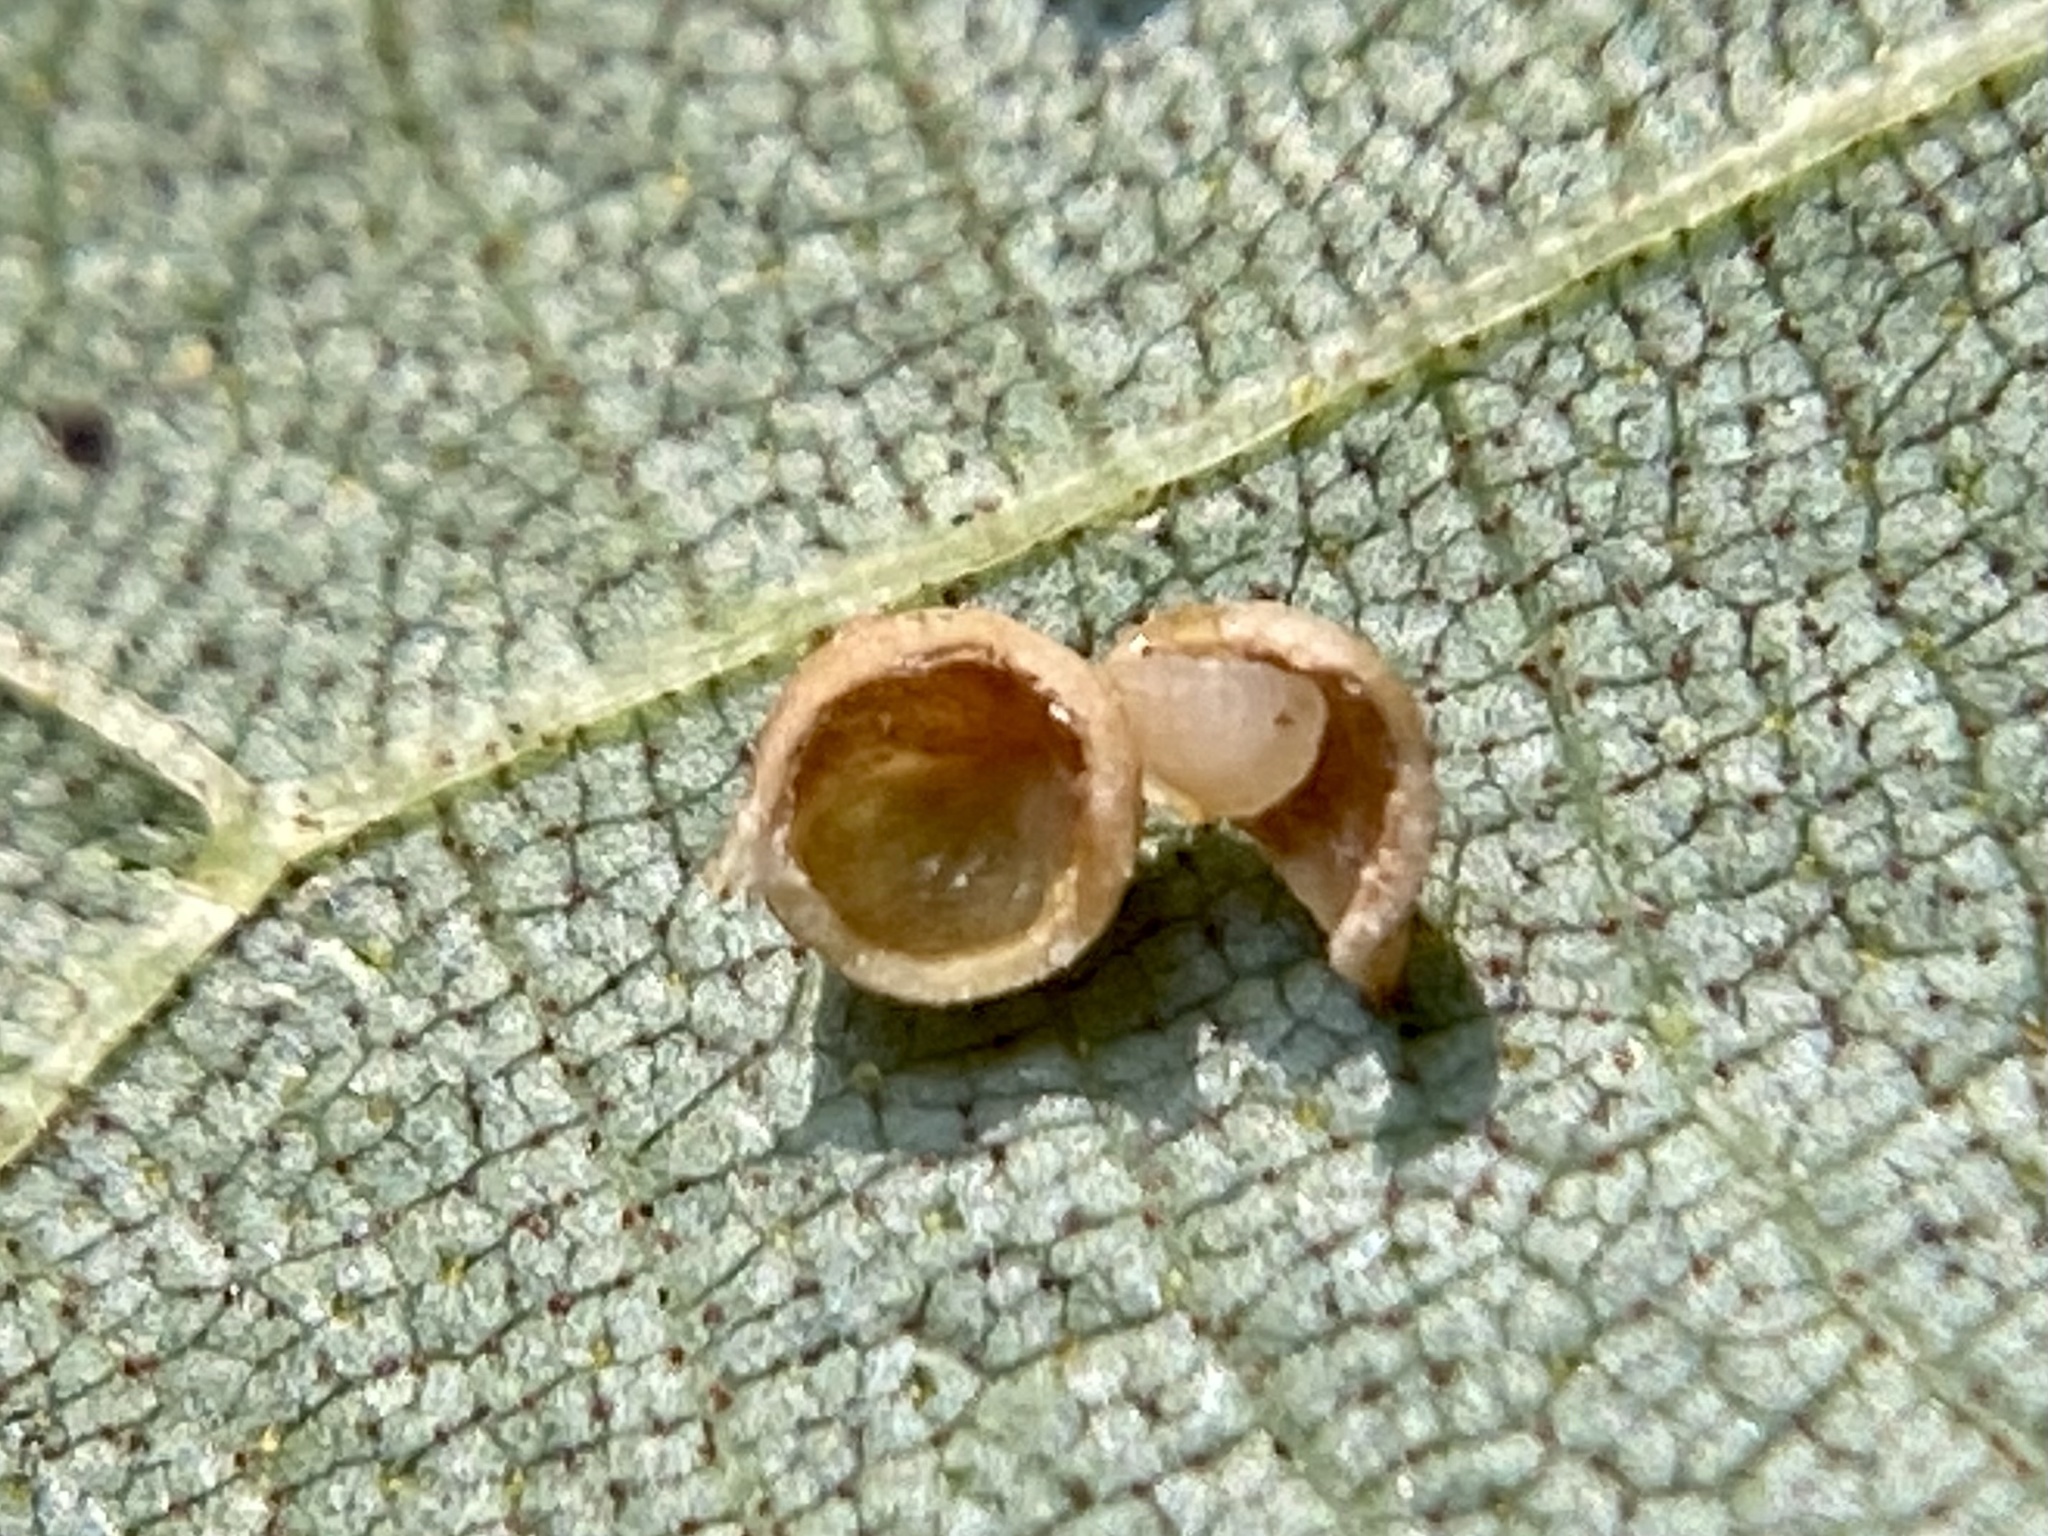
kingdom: Animalia
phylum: Arthropoda
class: Insecta
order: Diptera
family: Cecidomyiidae
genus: Caryomyia
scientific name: Caryomyia caryae
